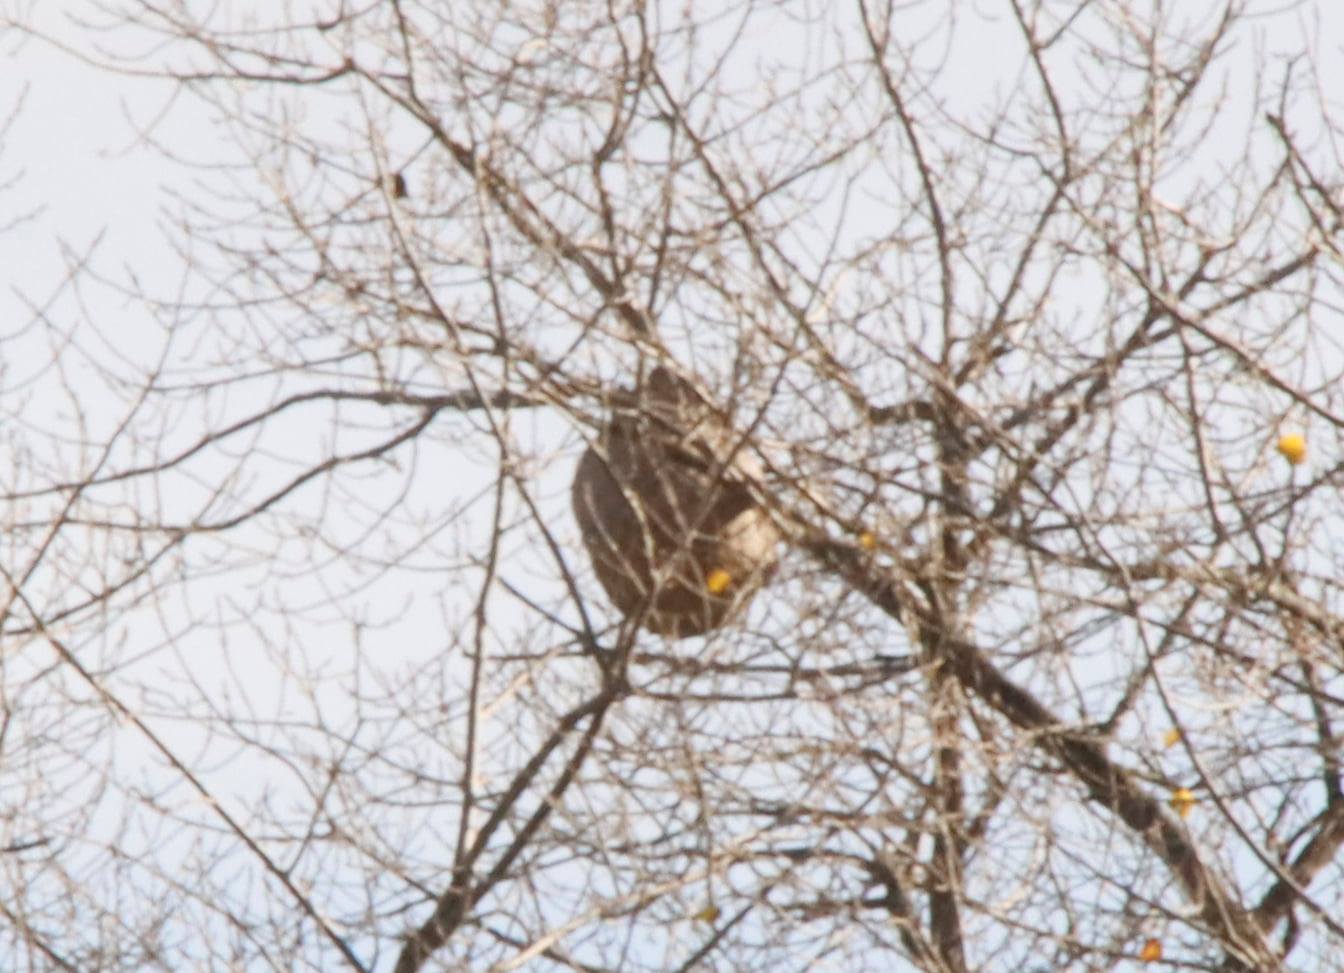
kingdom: Animalia
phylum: Arthropoda
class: Insecta
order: Hymenoptera
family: Vespidae
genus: Vespa
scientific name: Vespa velutina
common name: Asian hornet
